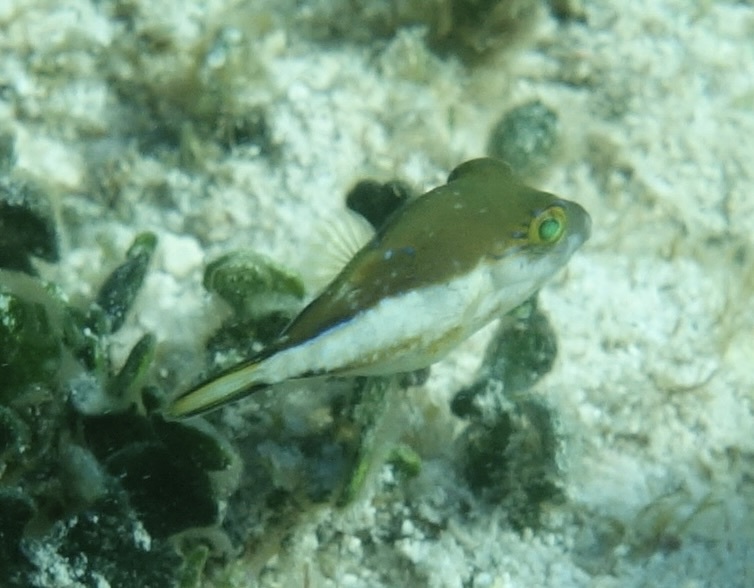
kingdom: Animalia
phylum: Chordata
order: Tetraodontiformes
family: Tetraodontidae
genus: Canthigaster
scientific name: Canthigaster rostrata
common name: Caribbean sharpnose-puffer
